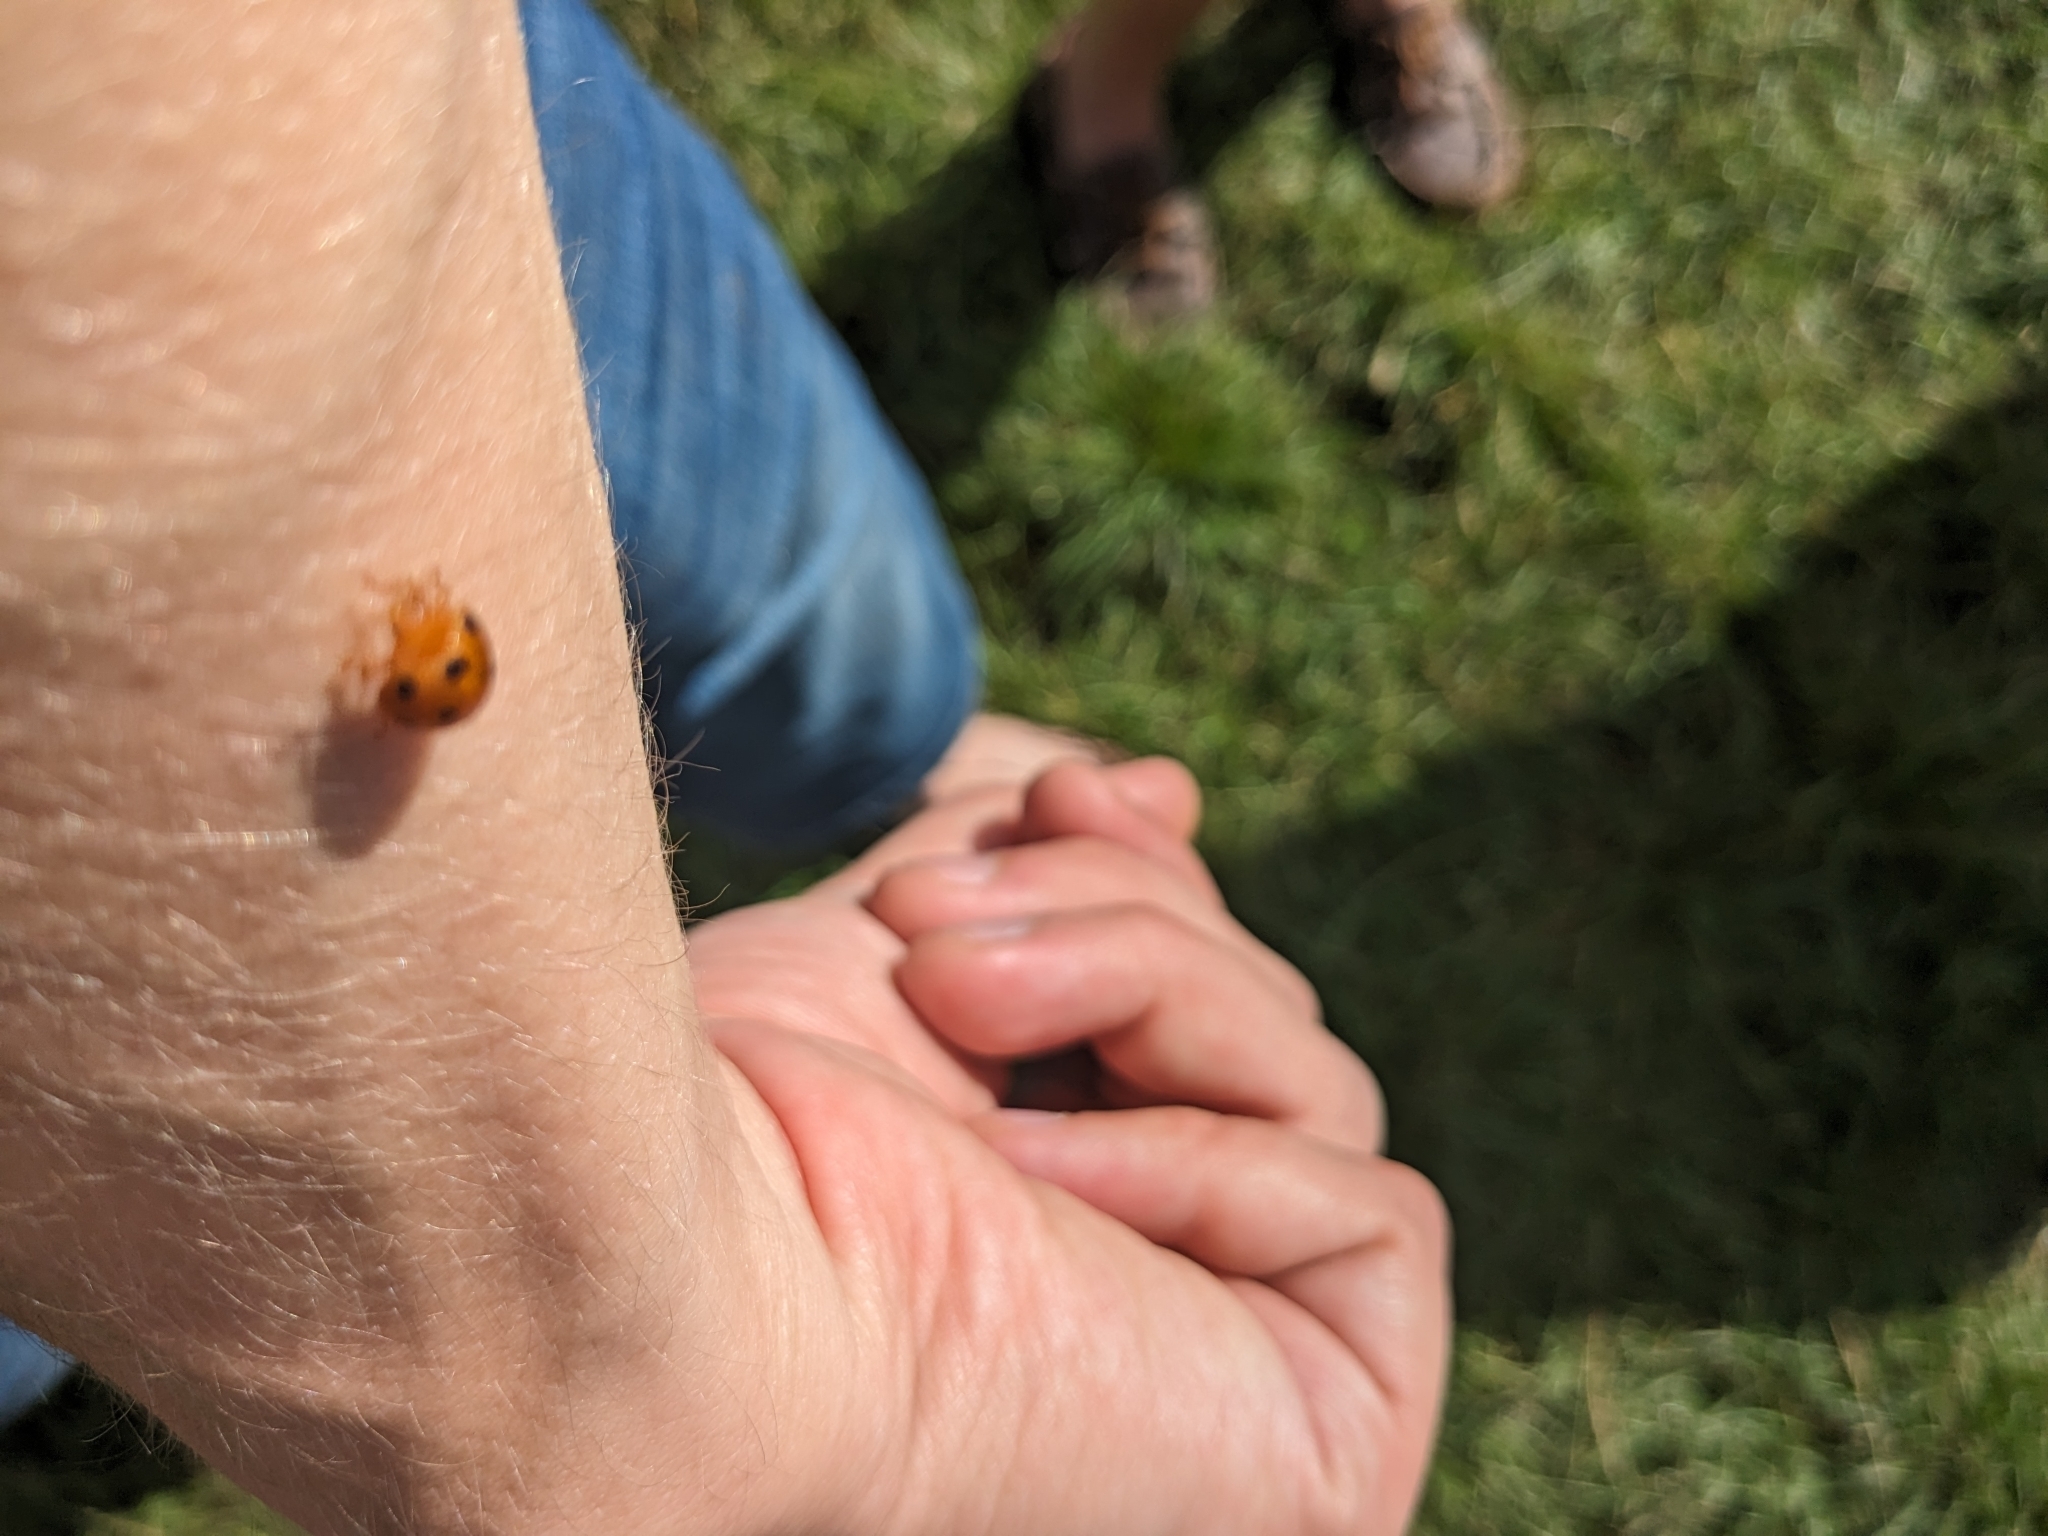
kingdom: Animalia
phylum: Arthropoda
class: Insecta
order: Coleoptera
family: Coccinellidae
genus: Henosepilachna
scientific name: Henosepilachna argus
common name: Bryony ladybird
